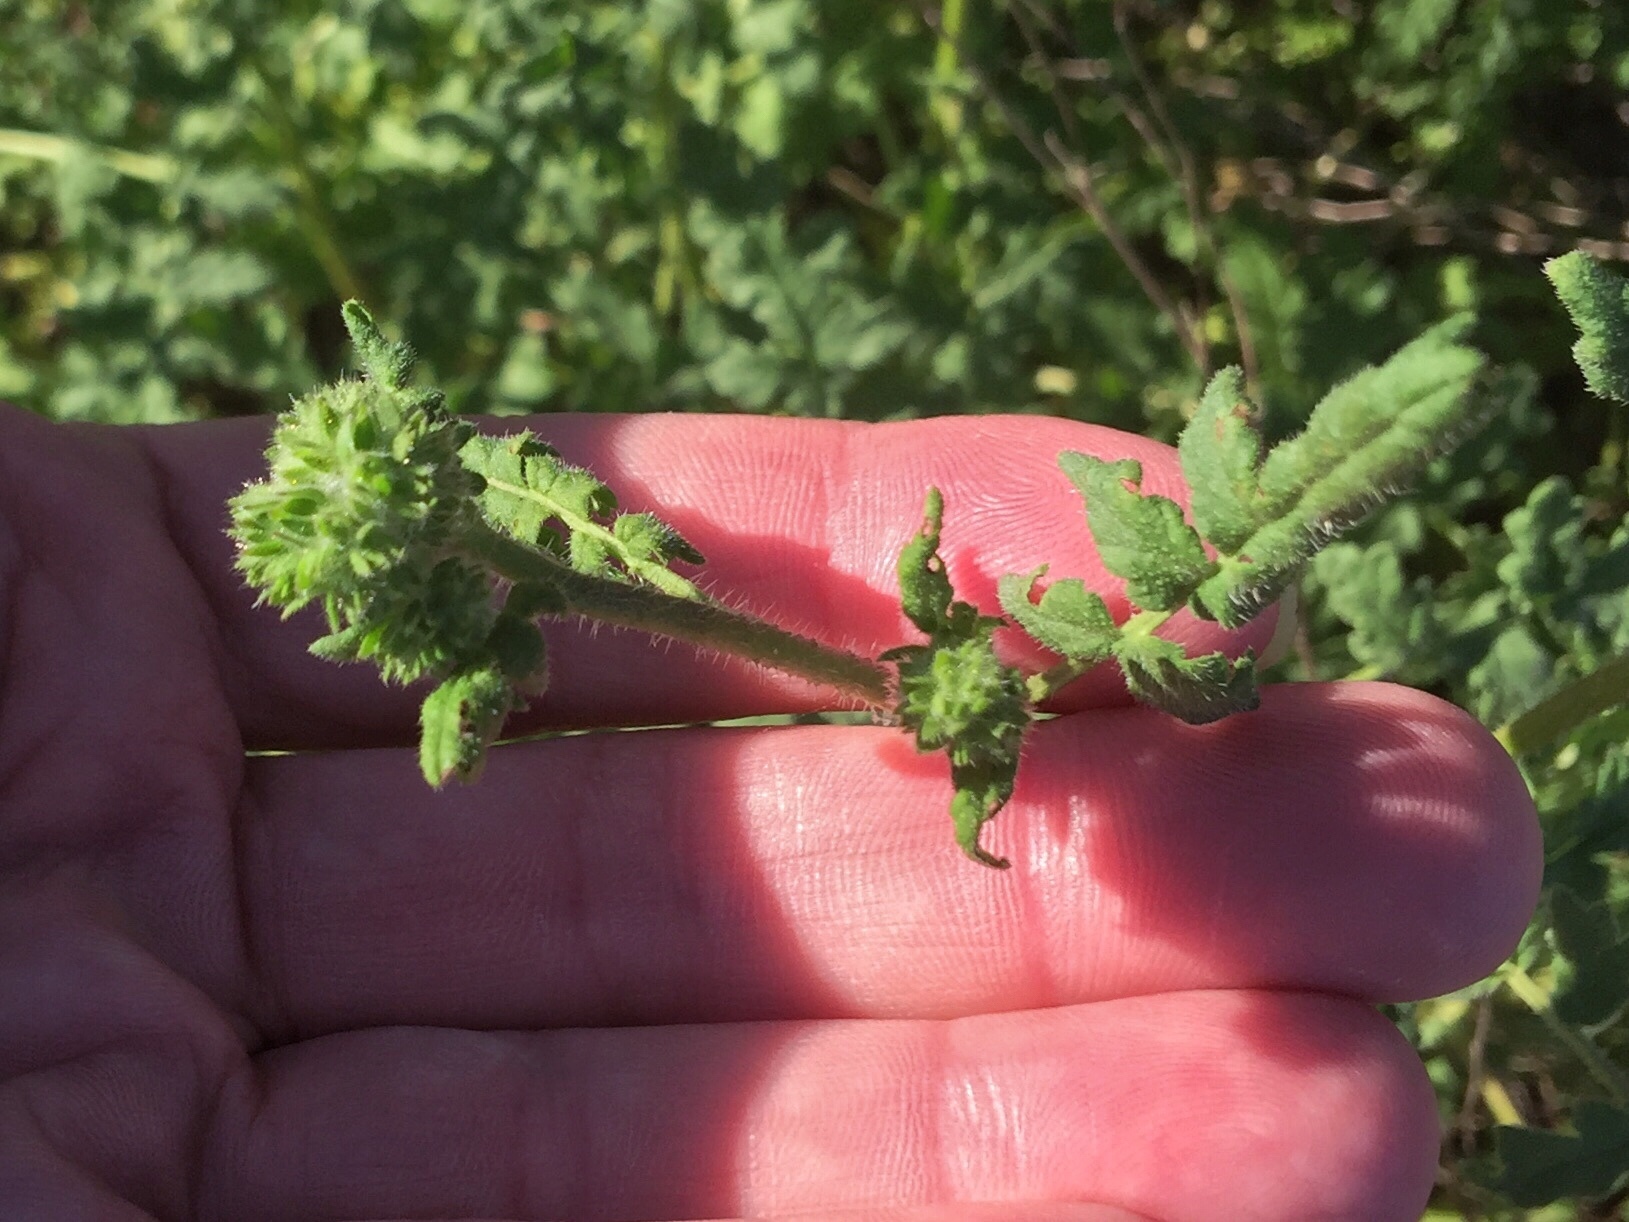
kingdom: Plantae
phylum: Tracheophyta
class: Magnoliopsida
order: Boraginales
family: Hydrophyllaceae
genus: Phacelia
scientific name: Phacelia ramosissima
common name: Branching phacelia
